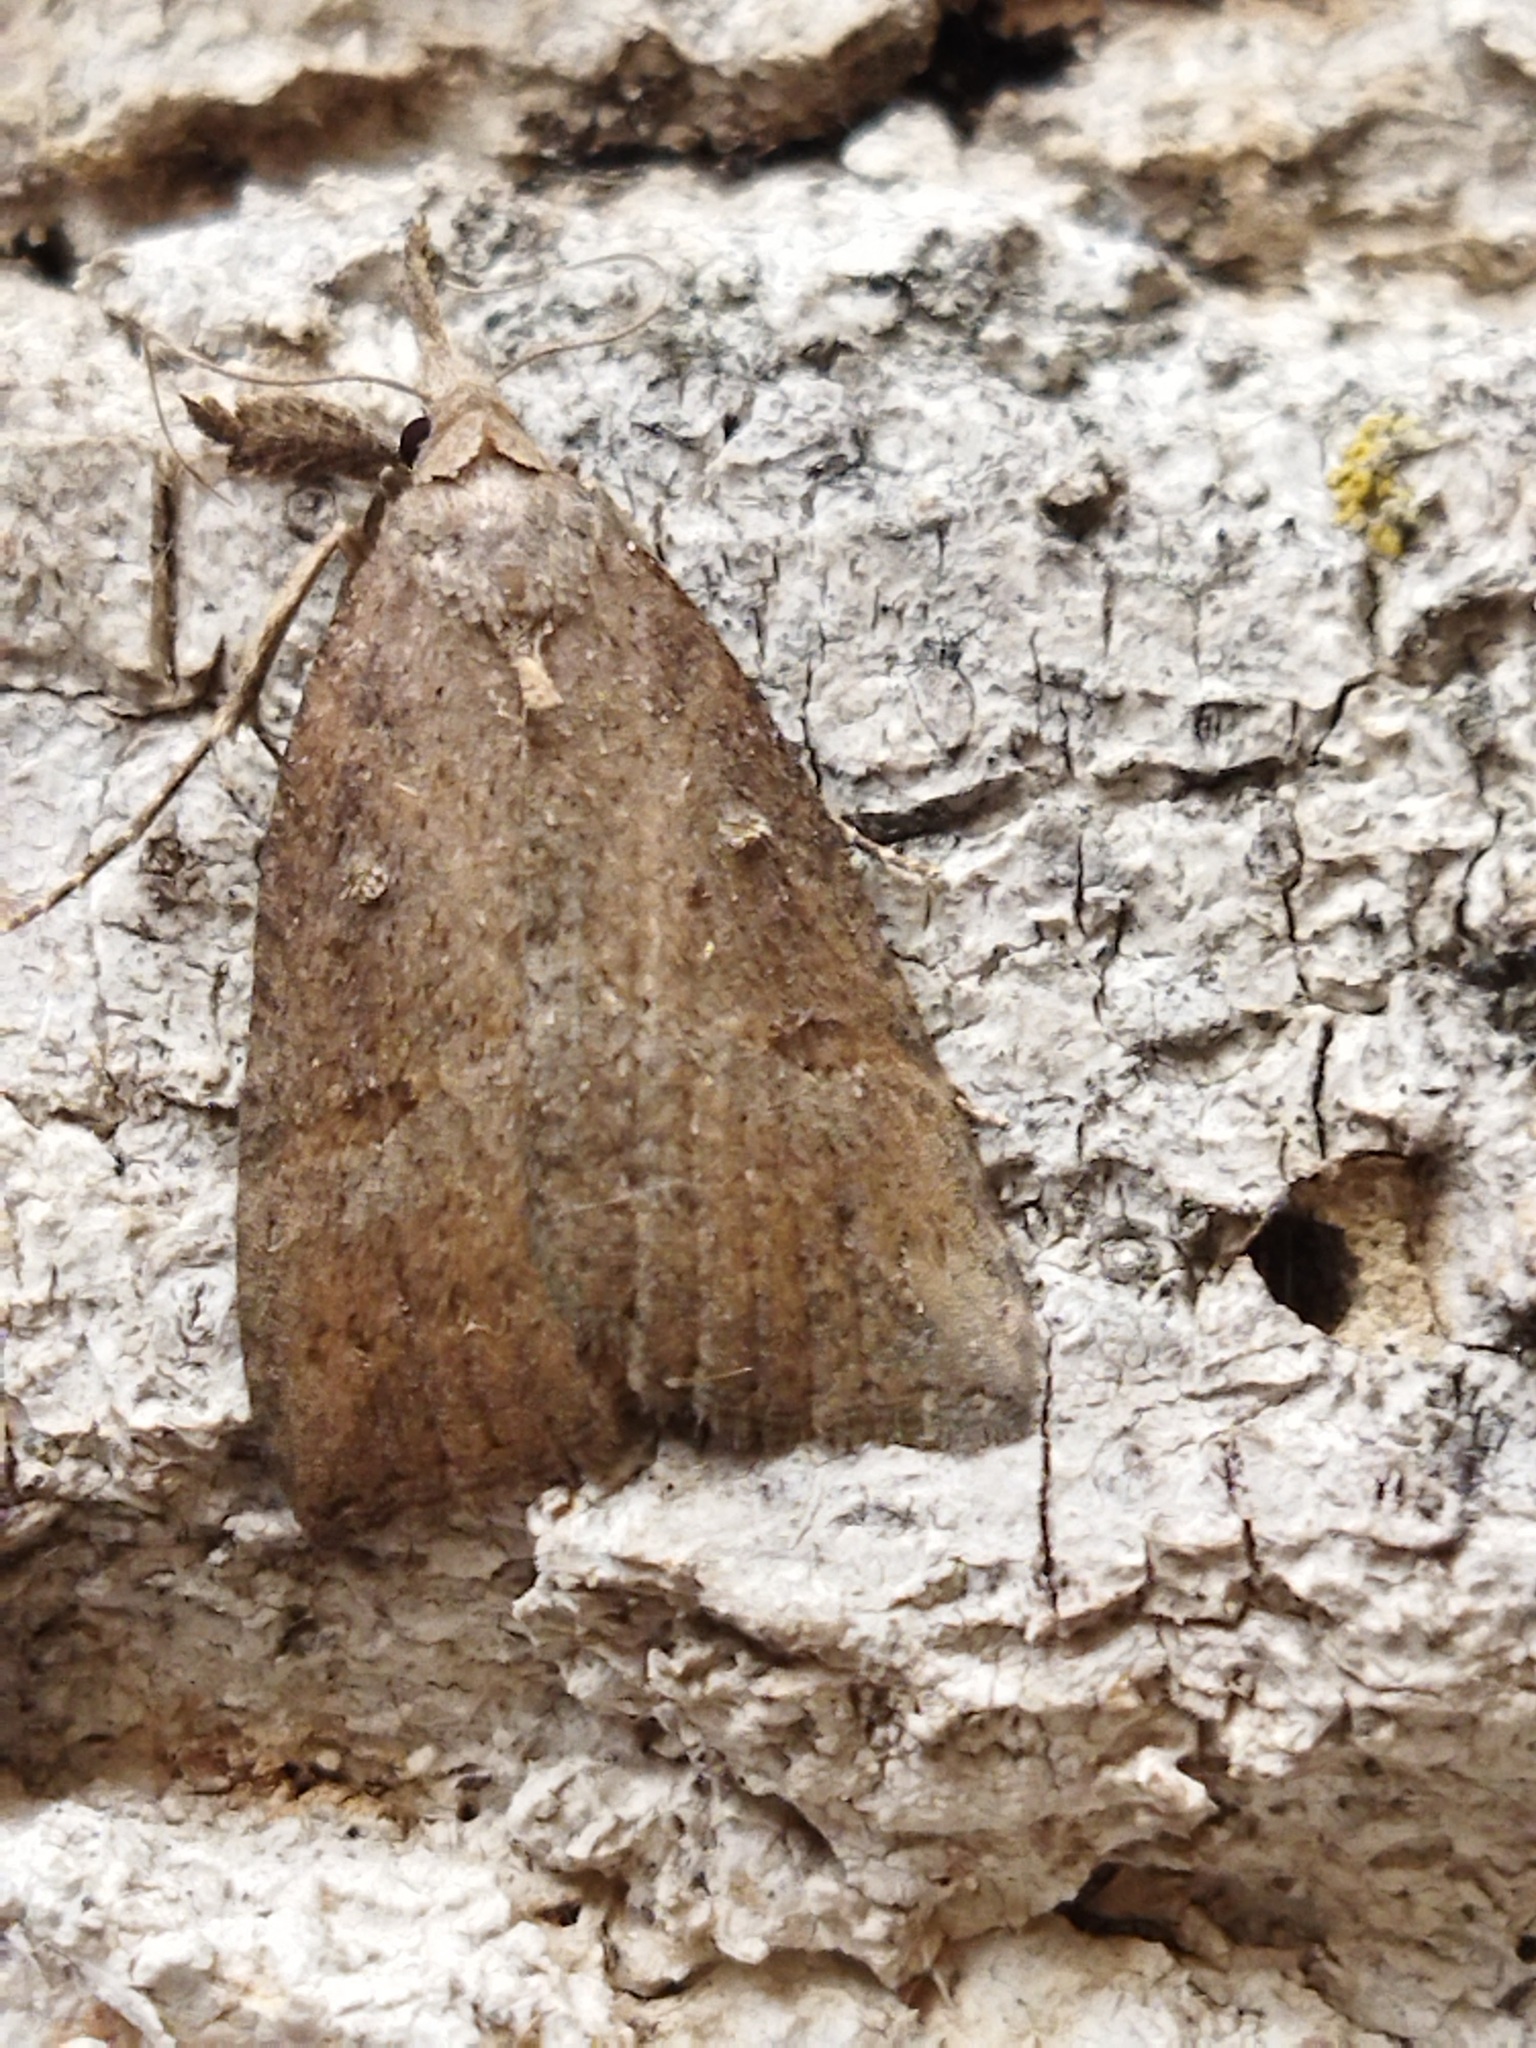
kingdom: Animalia
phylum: Arthropoda
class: Insecta
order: Lepidoptera
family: Erebidae
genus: Hypena
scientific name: Hypena rostralis
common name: Buttoned snout
